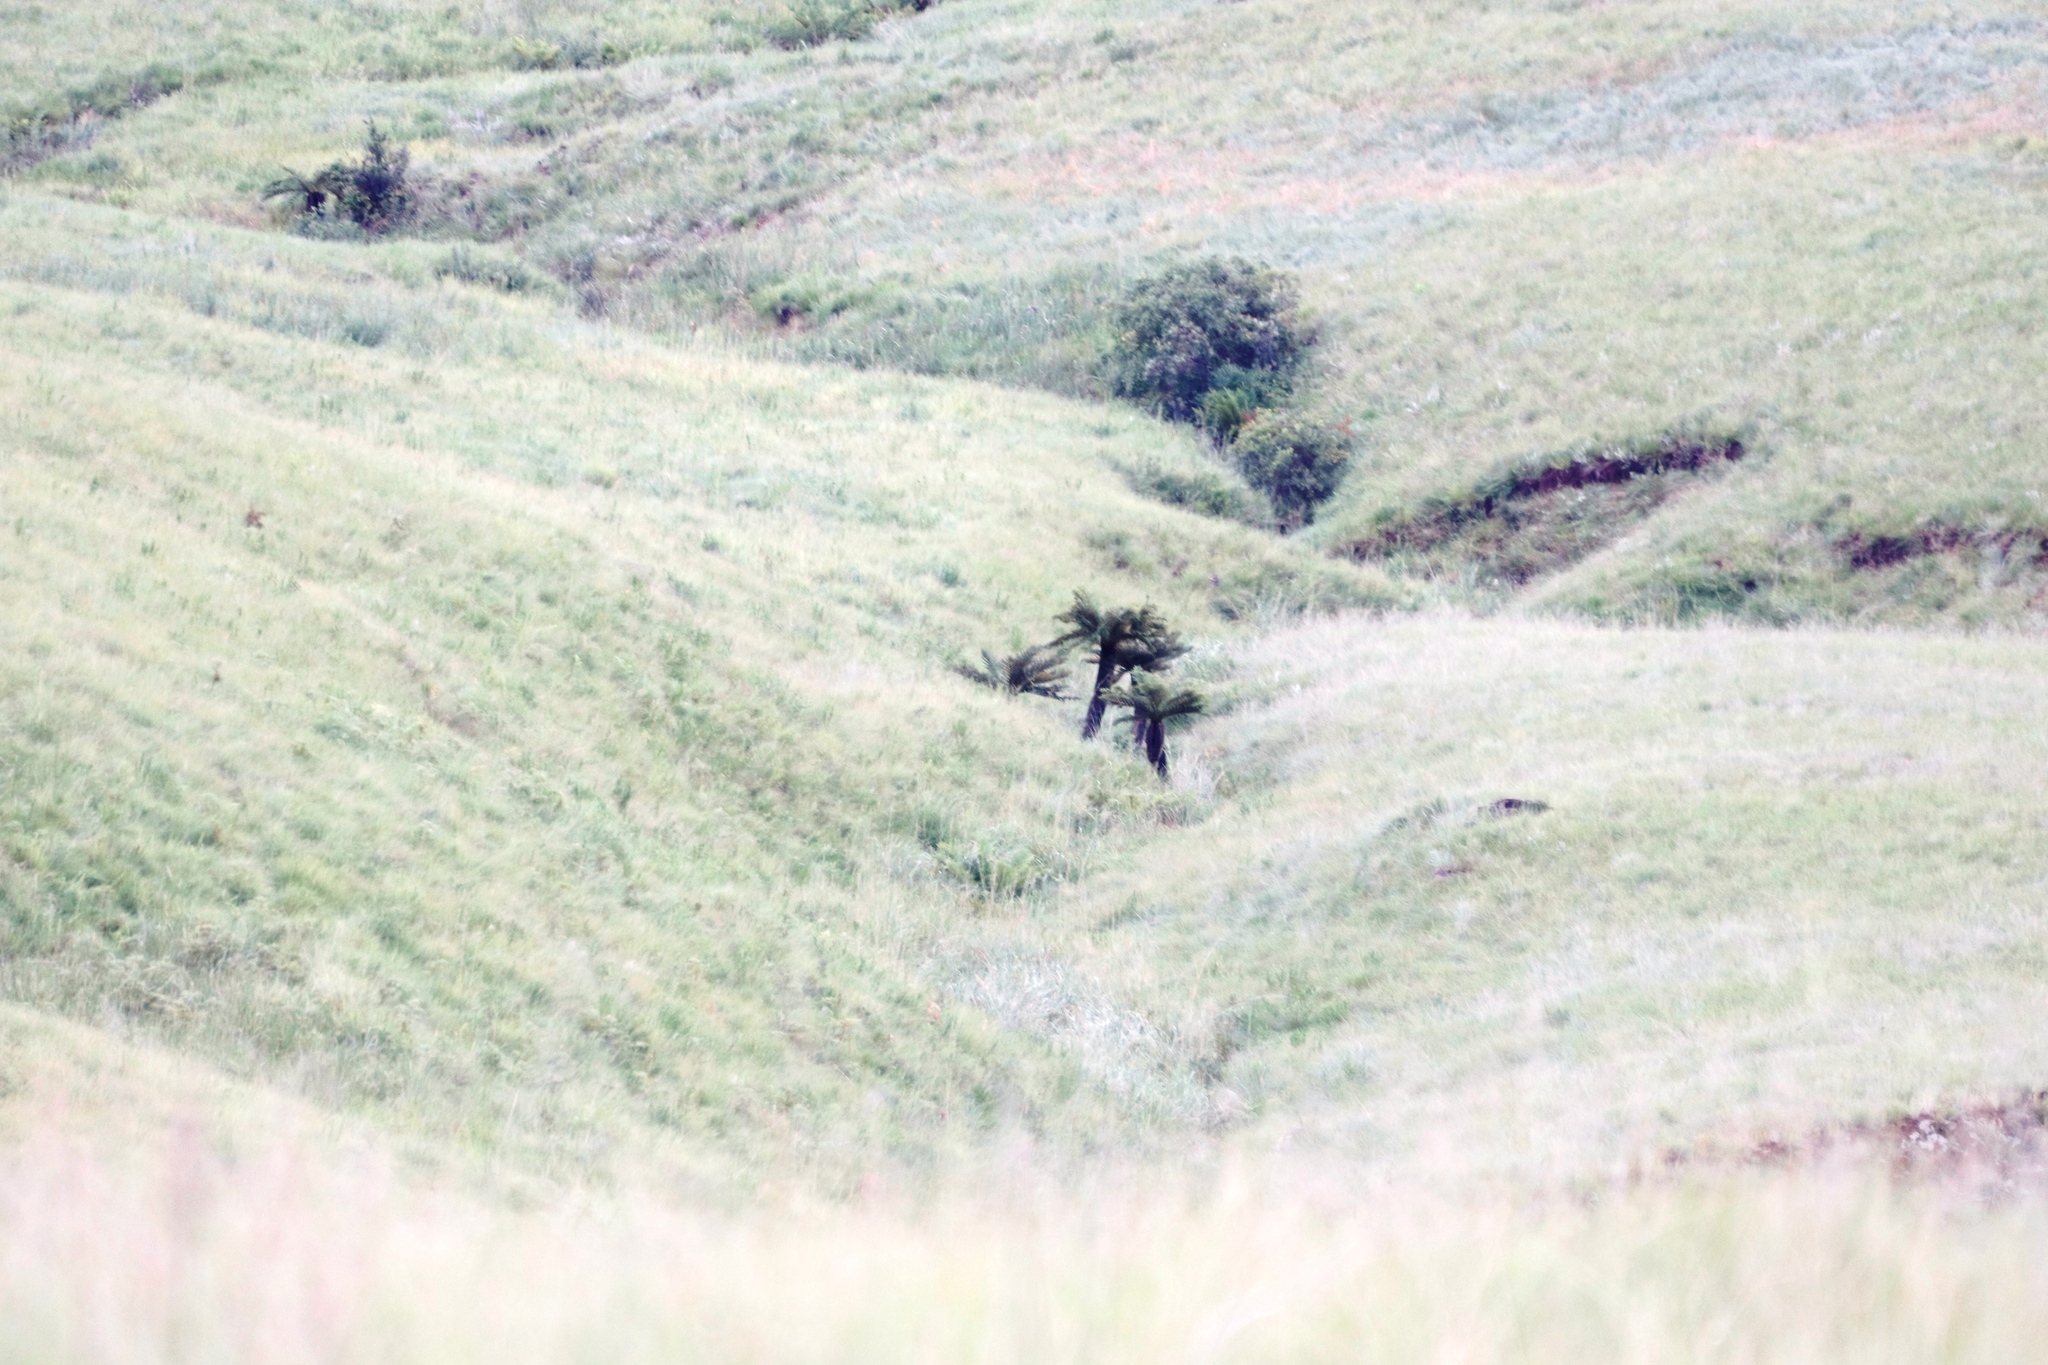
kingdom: Plantae
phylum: Tracheophyta
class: Polypodiopsida
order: Cyatheales
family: Cyatheaceae
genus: Alsophila
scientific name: Alsophila dregei
